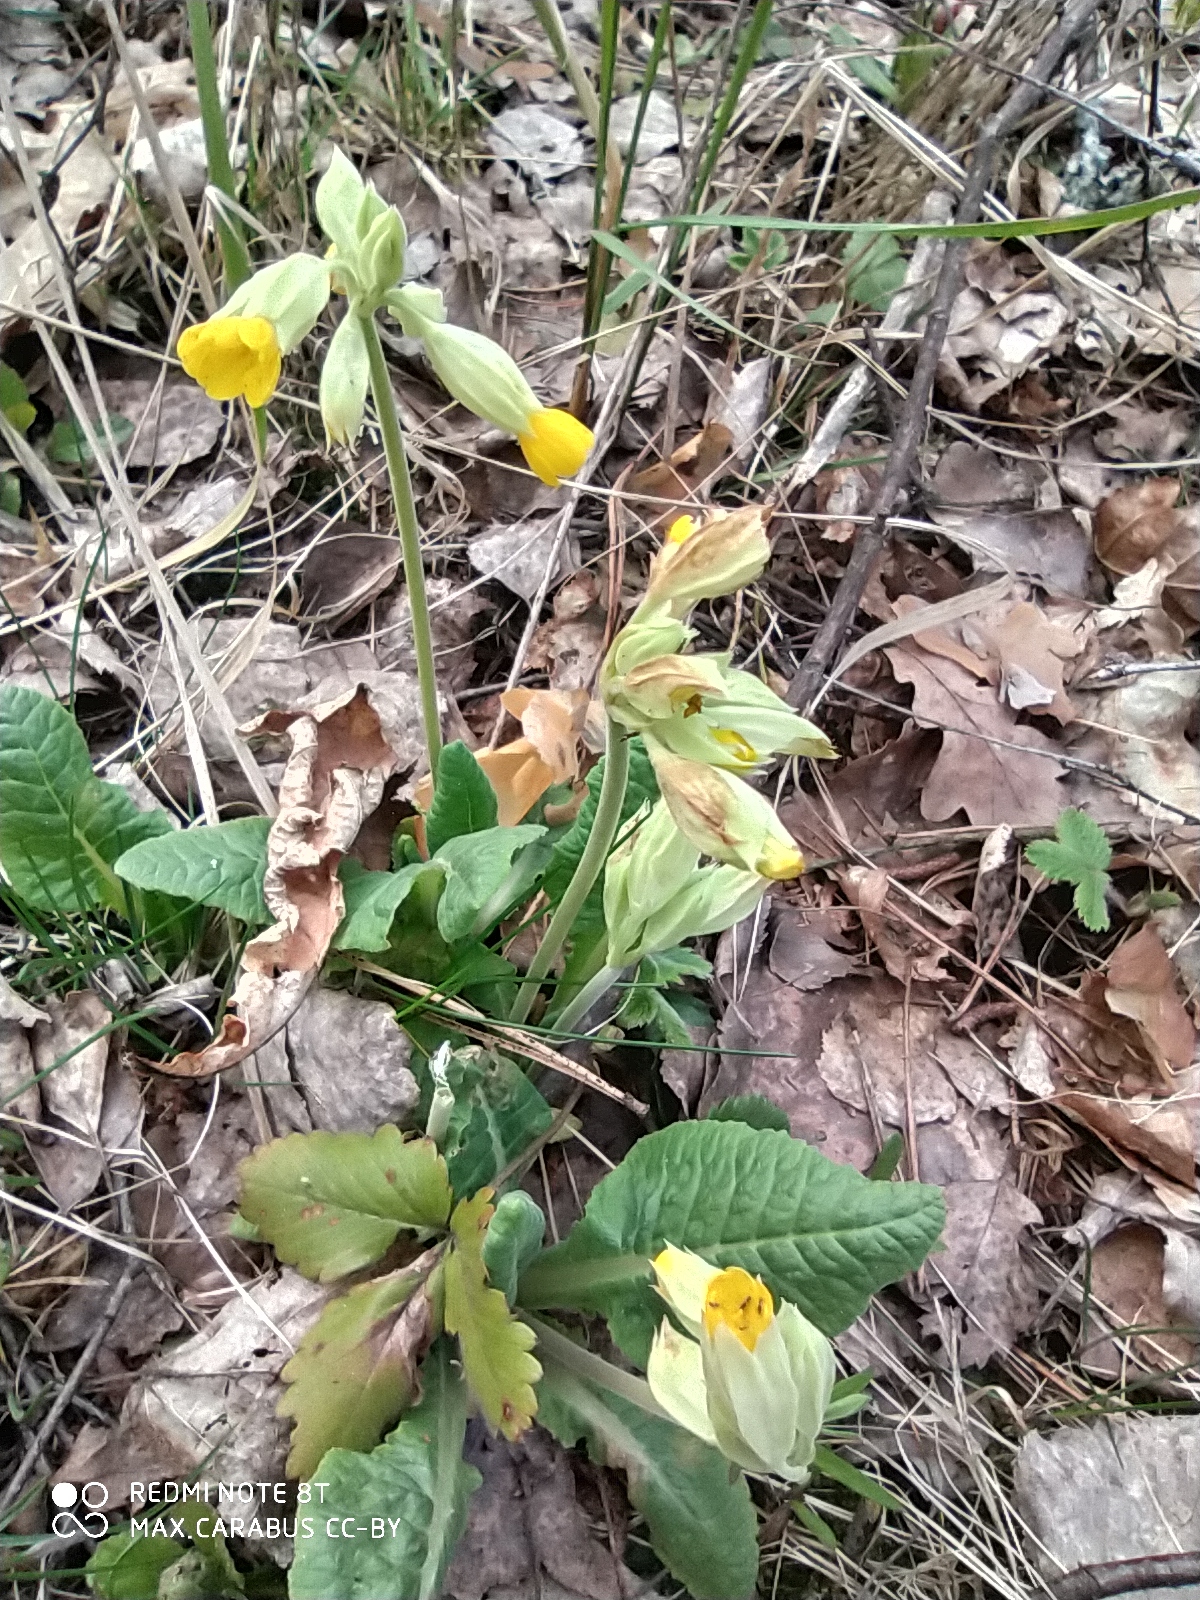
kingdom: Plantae
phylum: Tracheophyta
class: Magnoliopsida
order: Ericales
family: Primulaceae
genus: Primula
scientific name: Primula veris
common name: Cowslip
